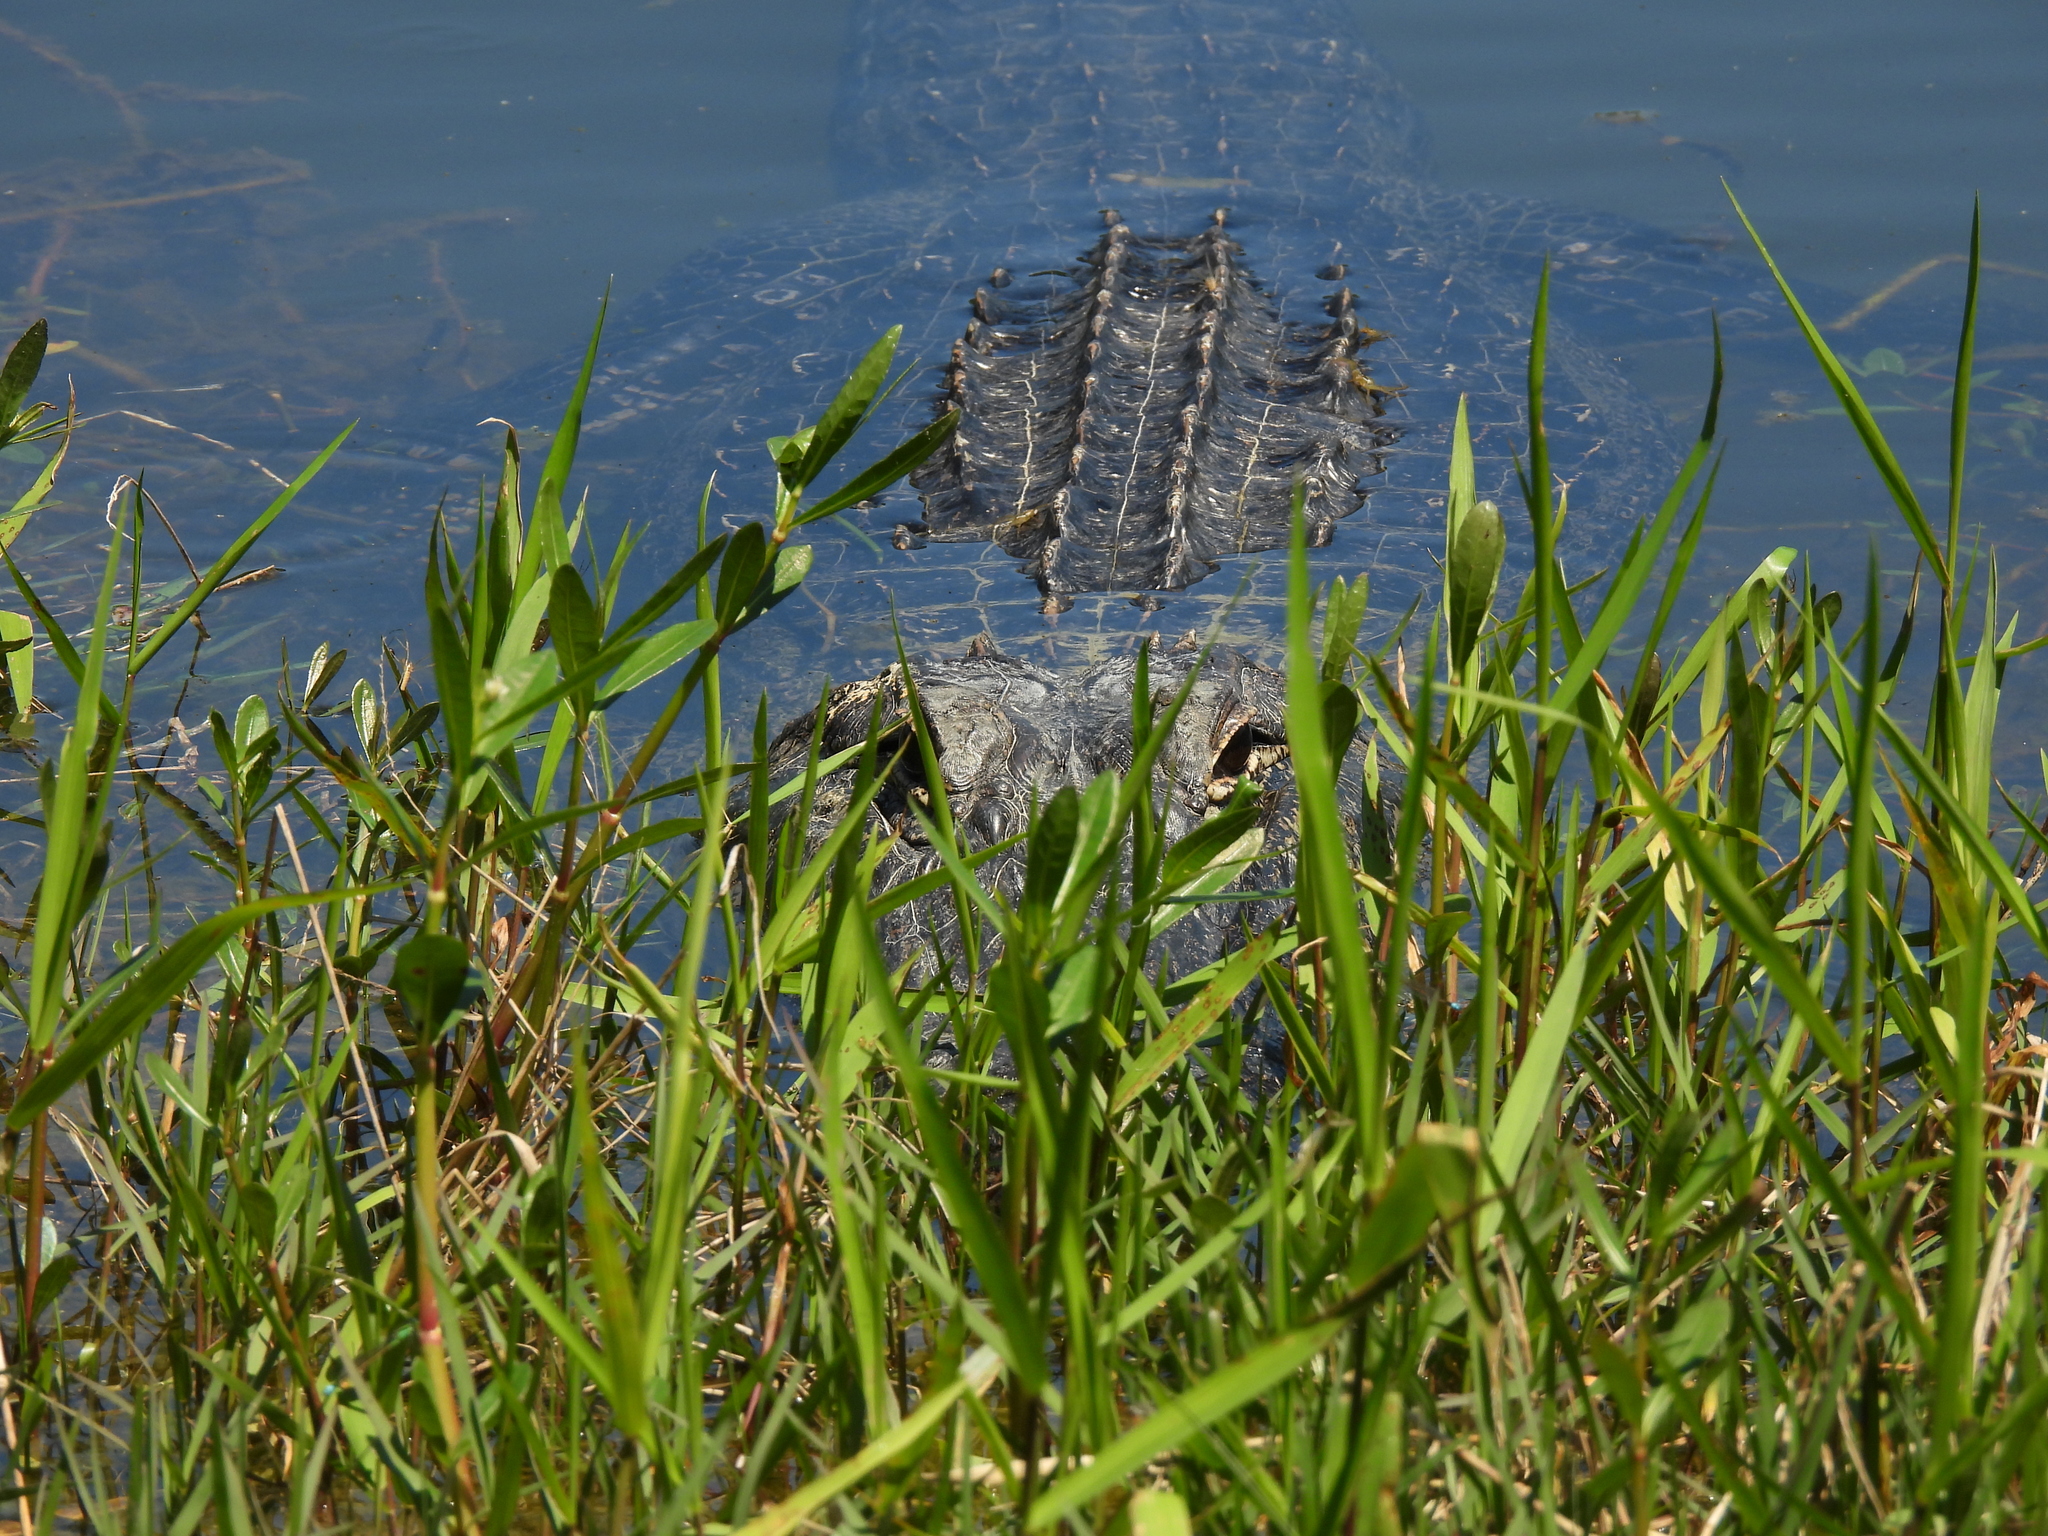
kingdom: Animalia
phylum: Chordata
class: Crocodylia
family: Alligatoridae
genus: Alligator
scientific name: Alligator mississippiensis
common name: American alligator
